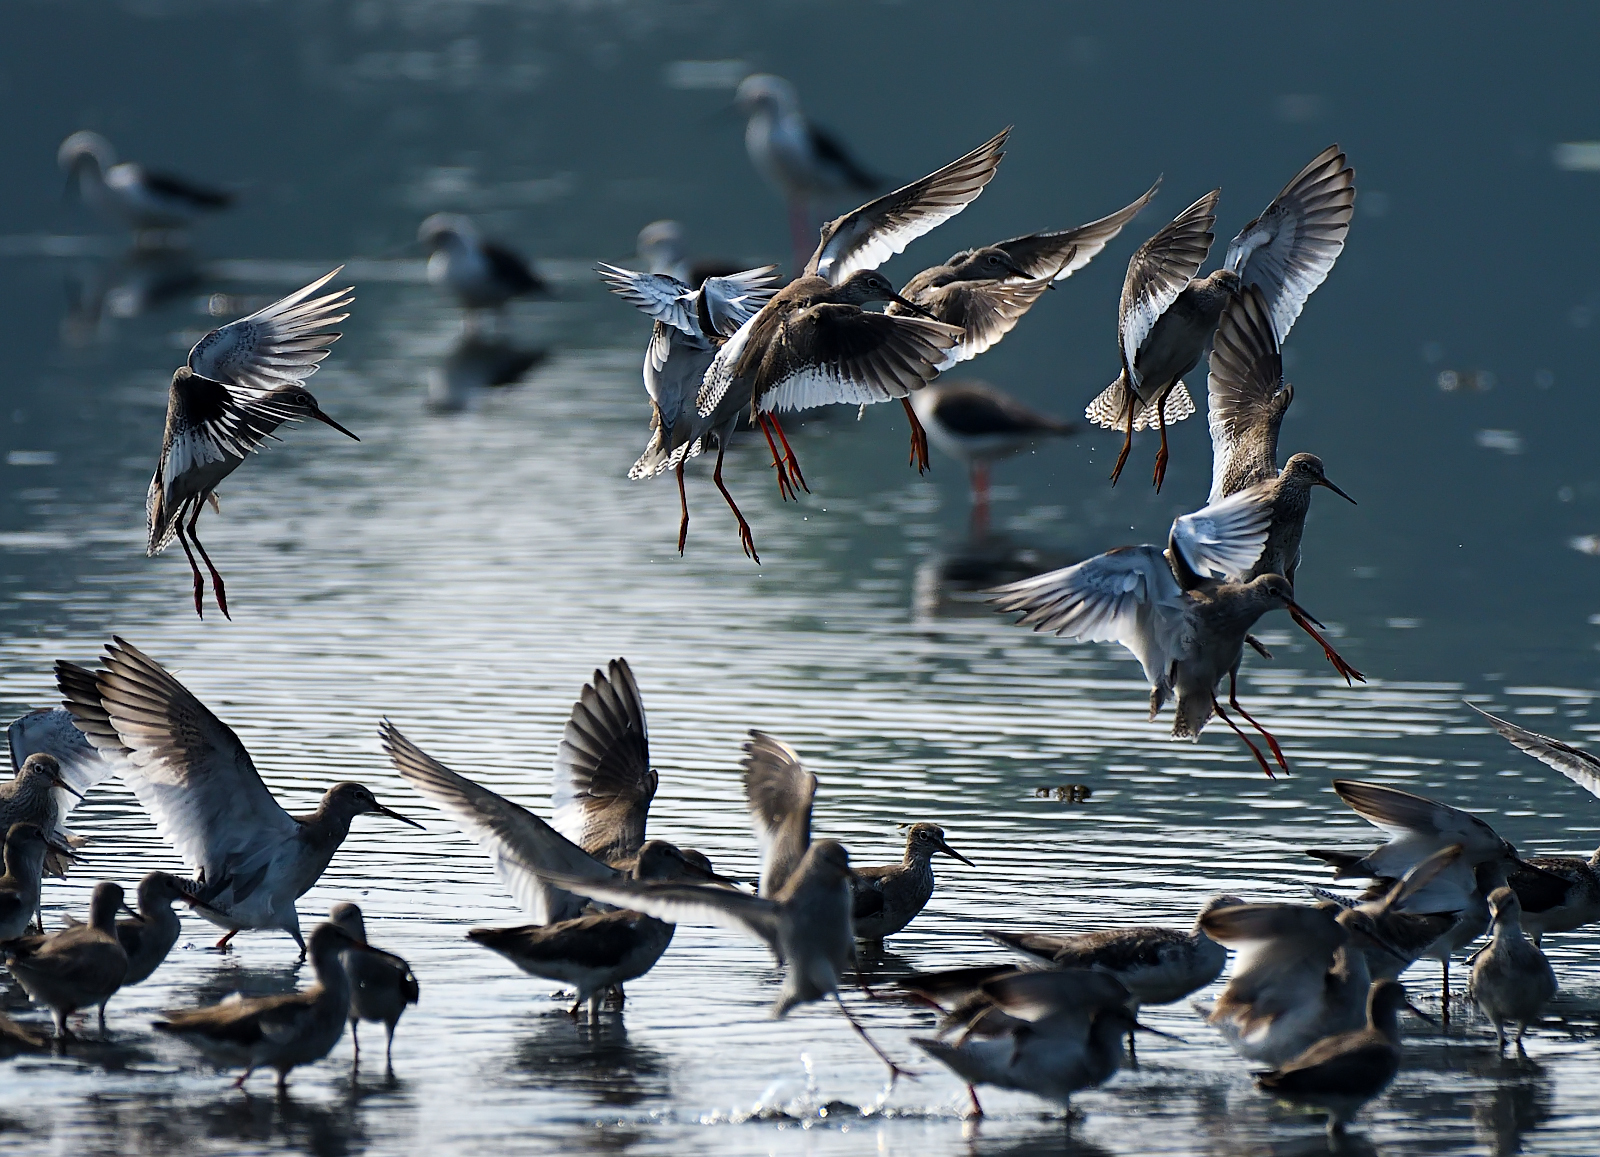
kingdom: Animalia
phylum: Chordata
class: Aves
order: Charadriiformes
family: Scolopacidae
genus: Tringa
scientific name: Tringa totanus
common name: Common redshank
